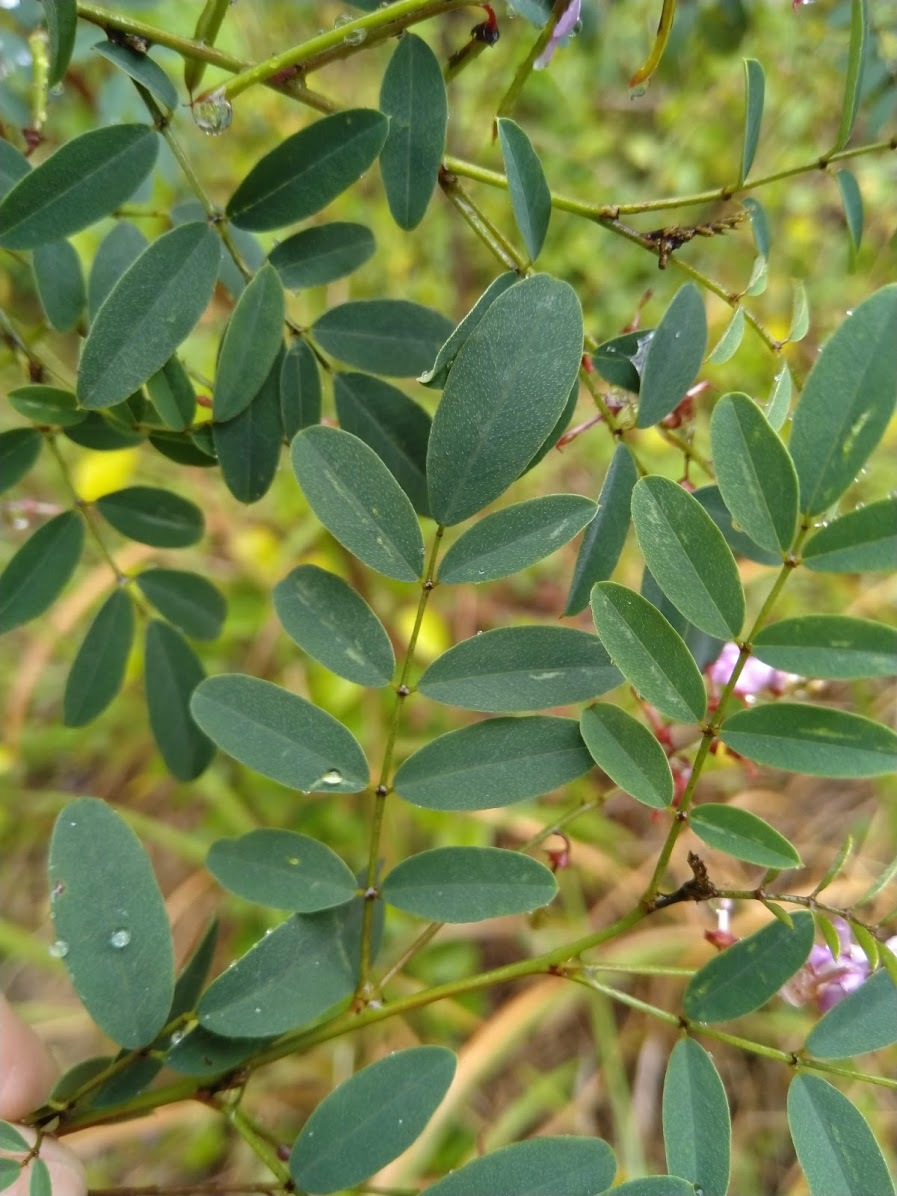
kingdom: Plantae
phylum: Tracheophyta
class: Magnoliopsida
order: Fabales
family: Fabaceae
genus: Indigofera
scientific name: Indigofera australis
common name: Australian indigo
